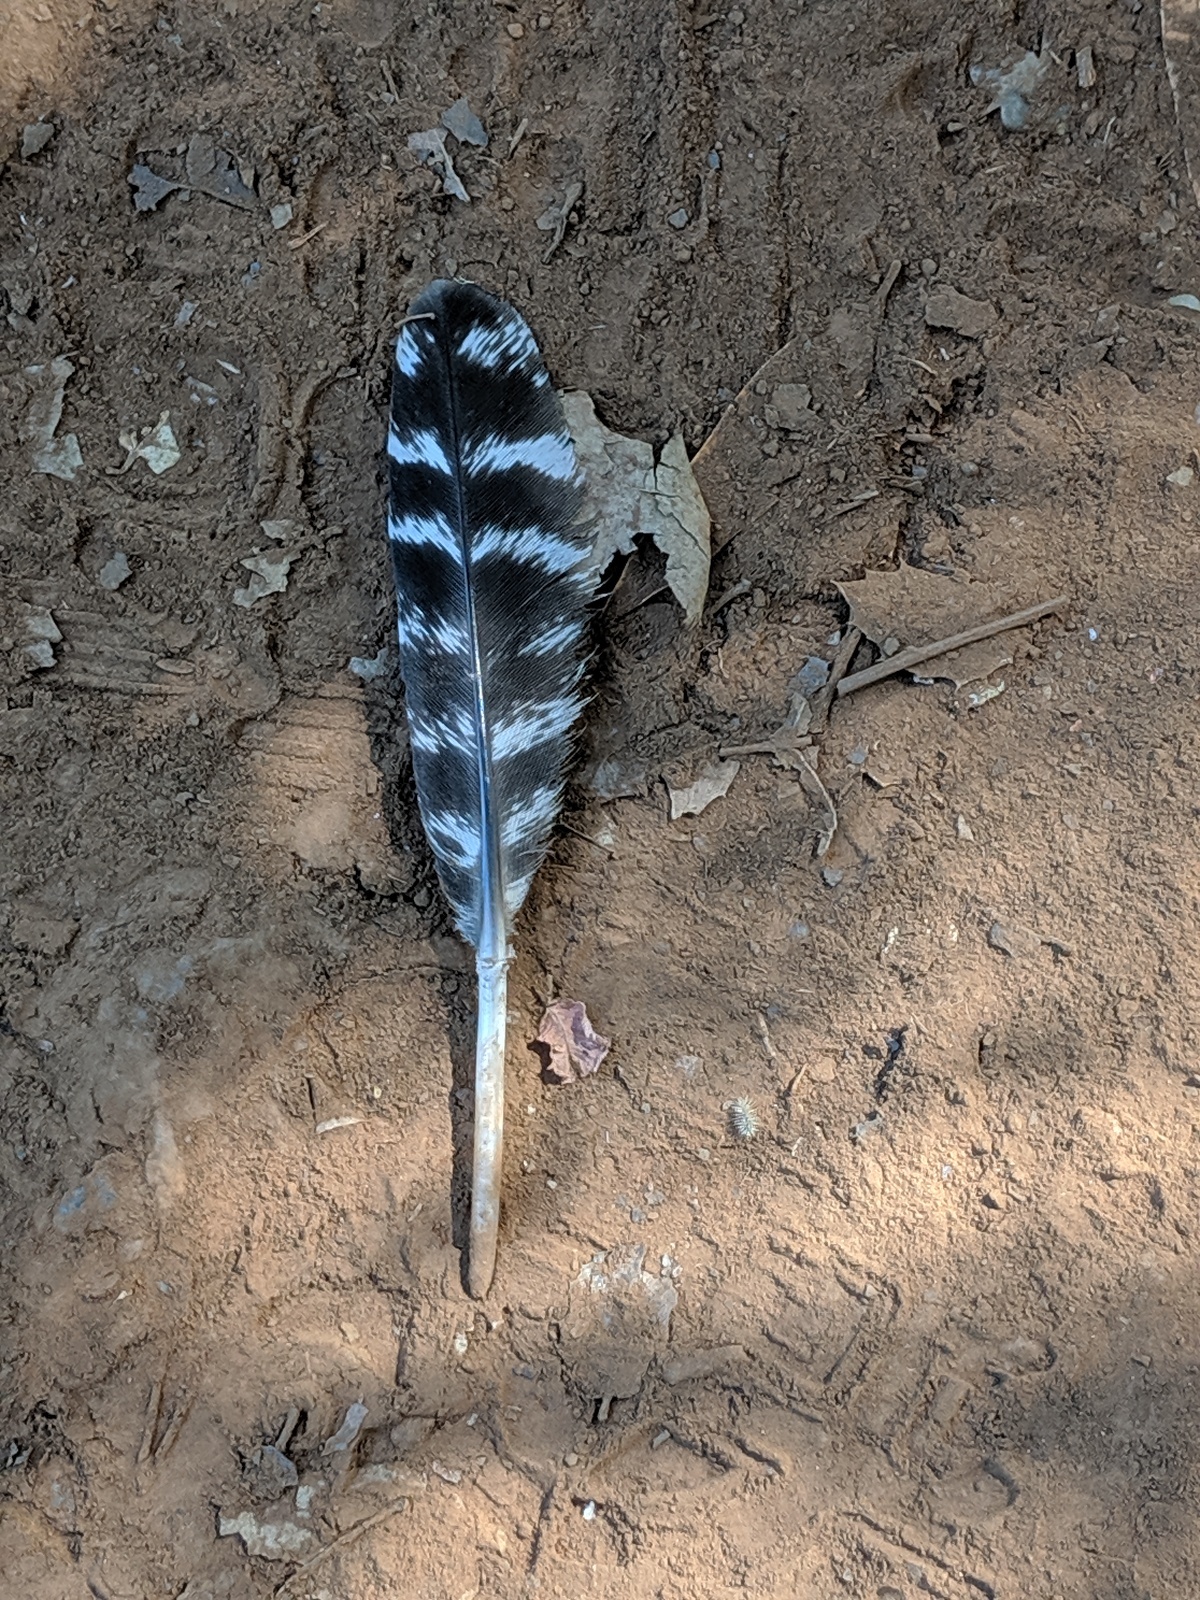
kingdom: Animalia
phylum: Chordata
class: Aves
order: Galliformes
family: Phasianidae
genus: Meleagris
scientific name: Meleagris gallopavo
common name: Wild turkey
